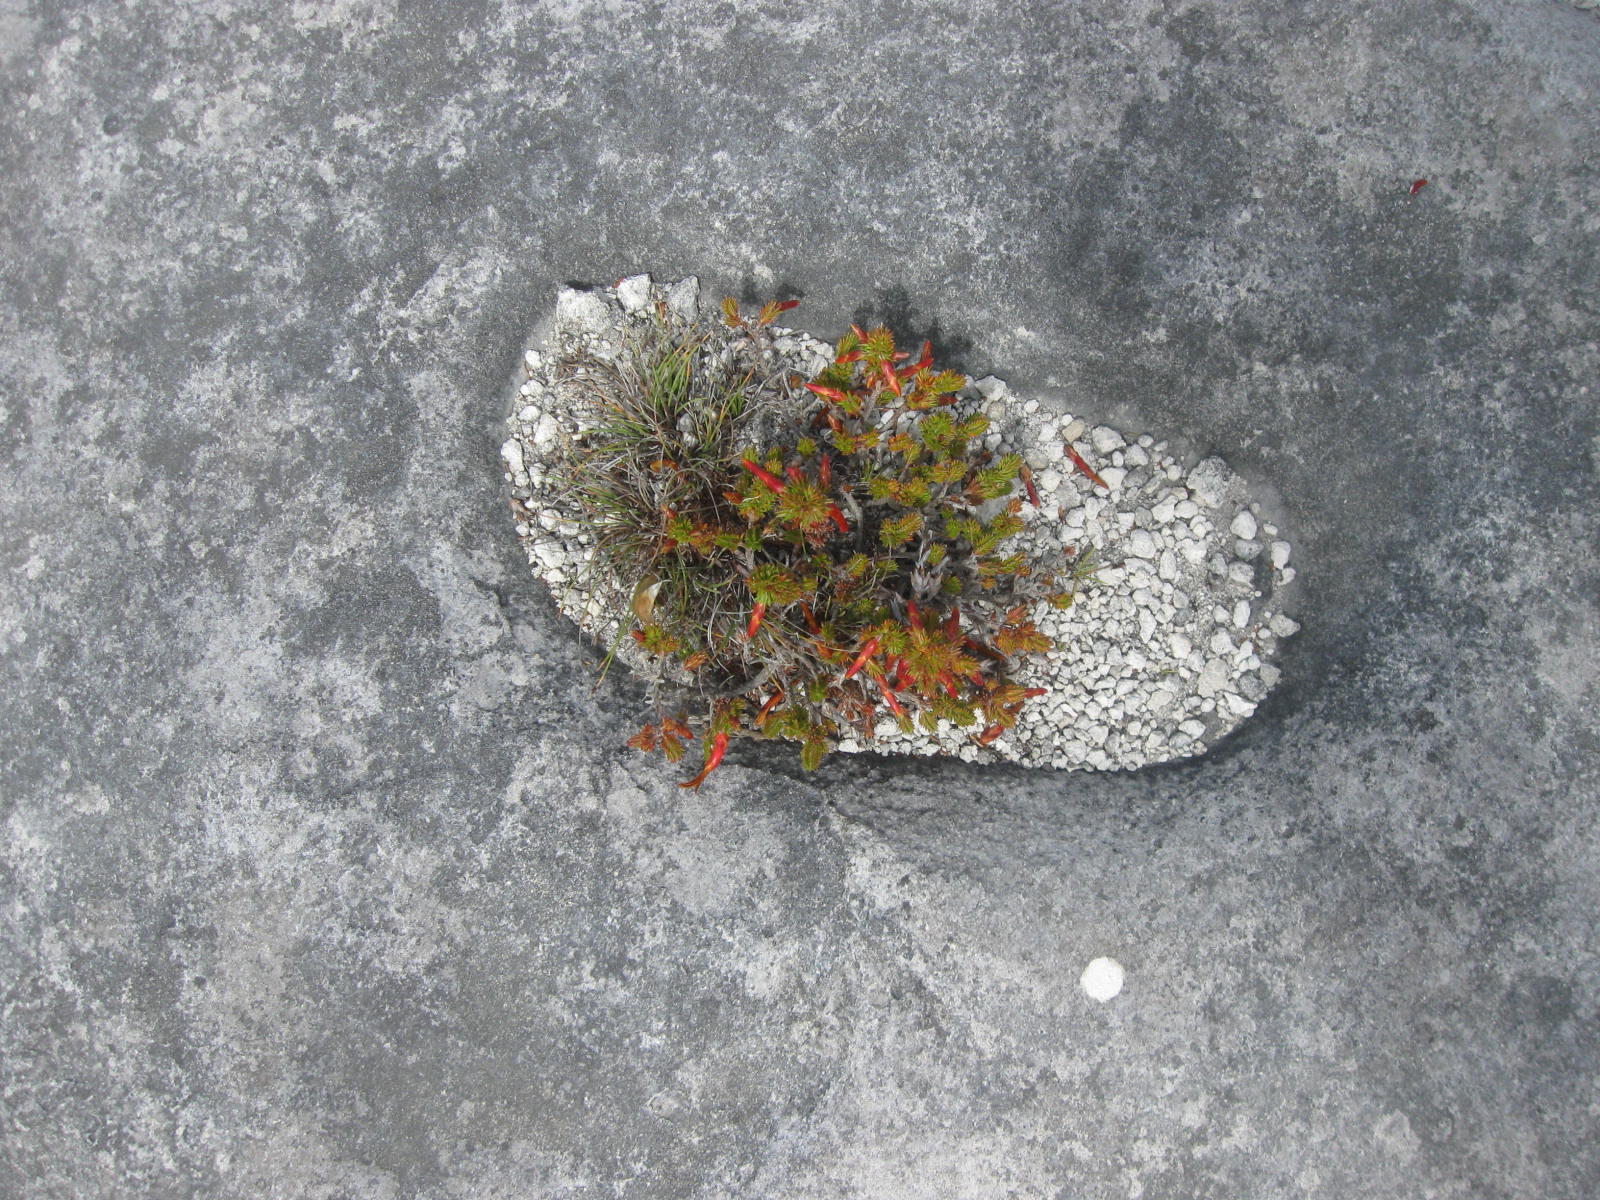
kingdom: Plantae
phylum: Tracheophyta
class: Magnoliopsida
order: Ericales
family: Ericaceae
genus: Erica
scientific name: Erica coccinea
